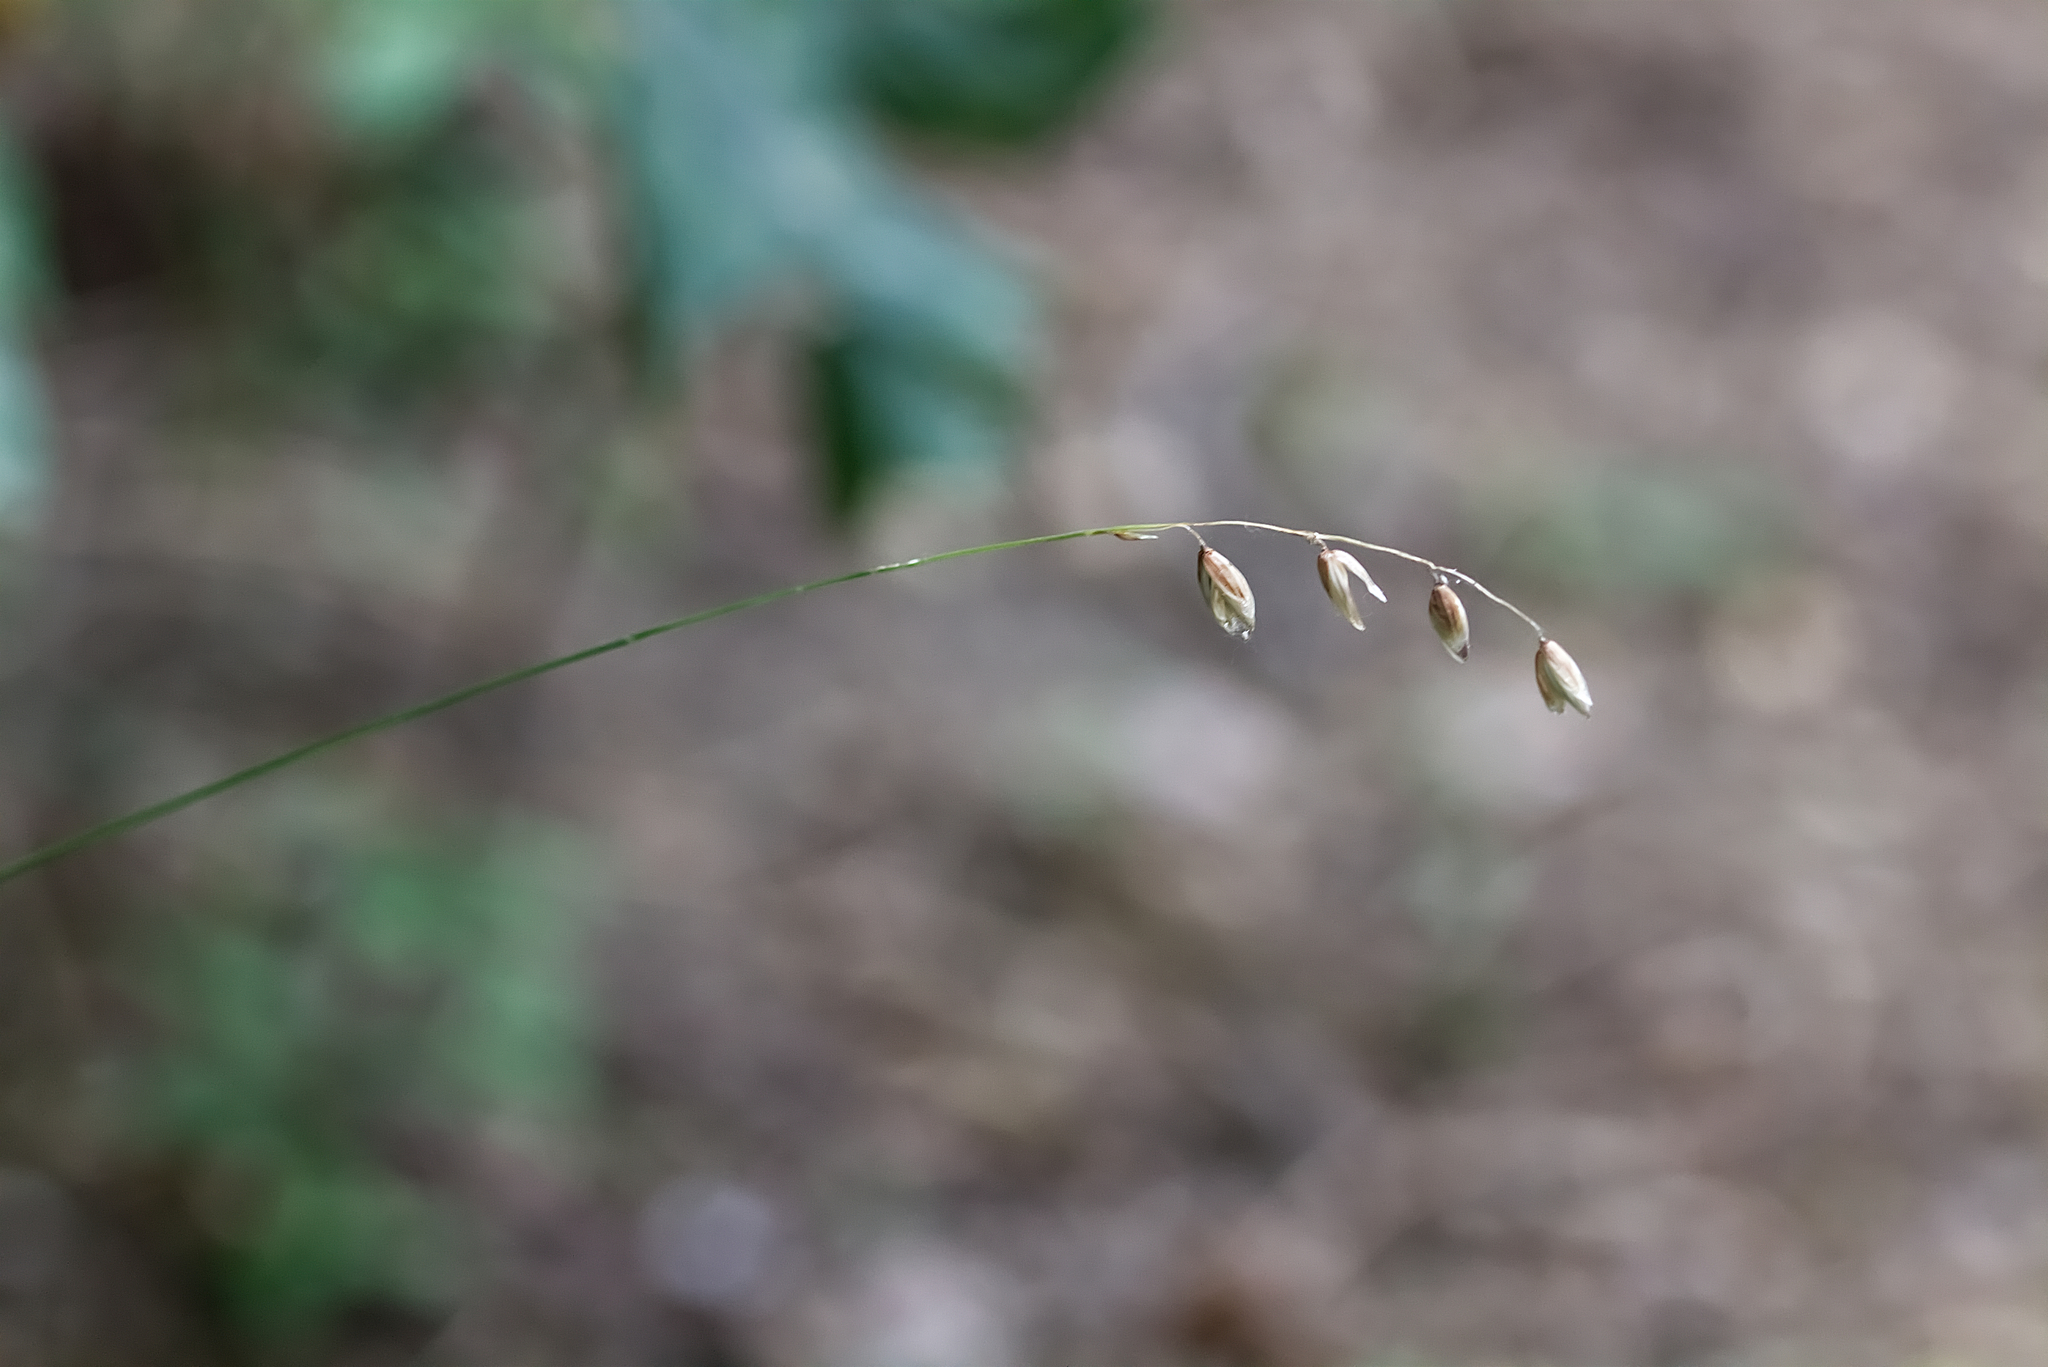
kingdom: Plantae
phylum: Tracheophyta
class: Liliopsida
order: Poales
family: Poaceae
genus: Melica
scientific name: Melica nutans
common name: Mountain melick
